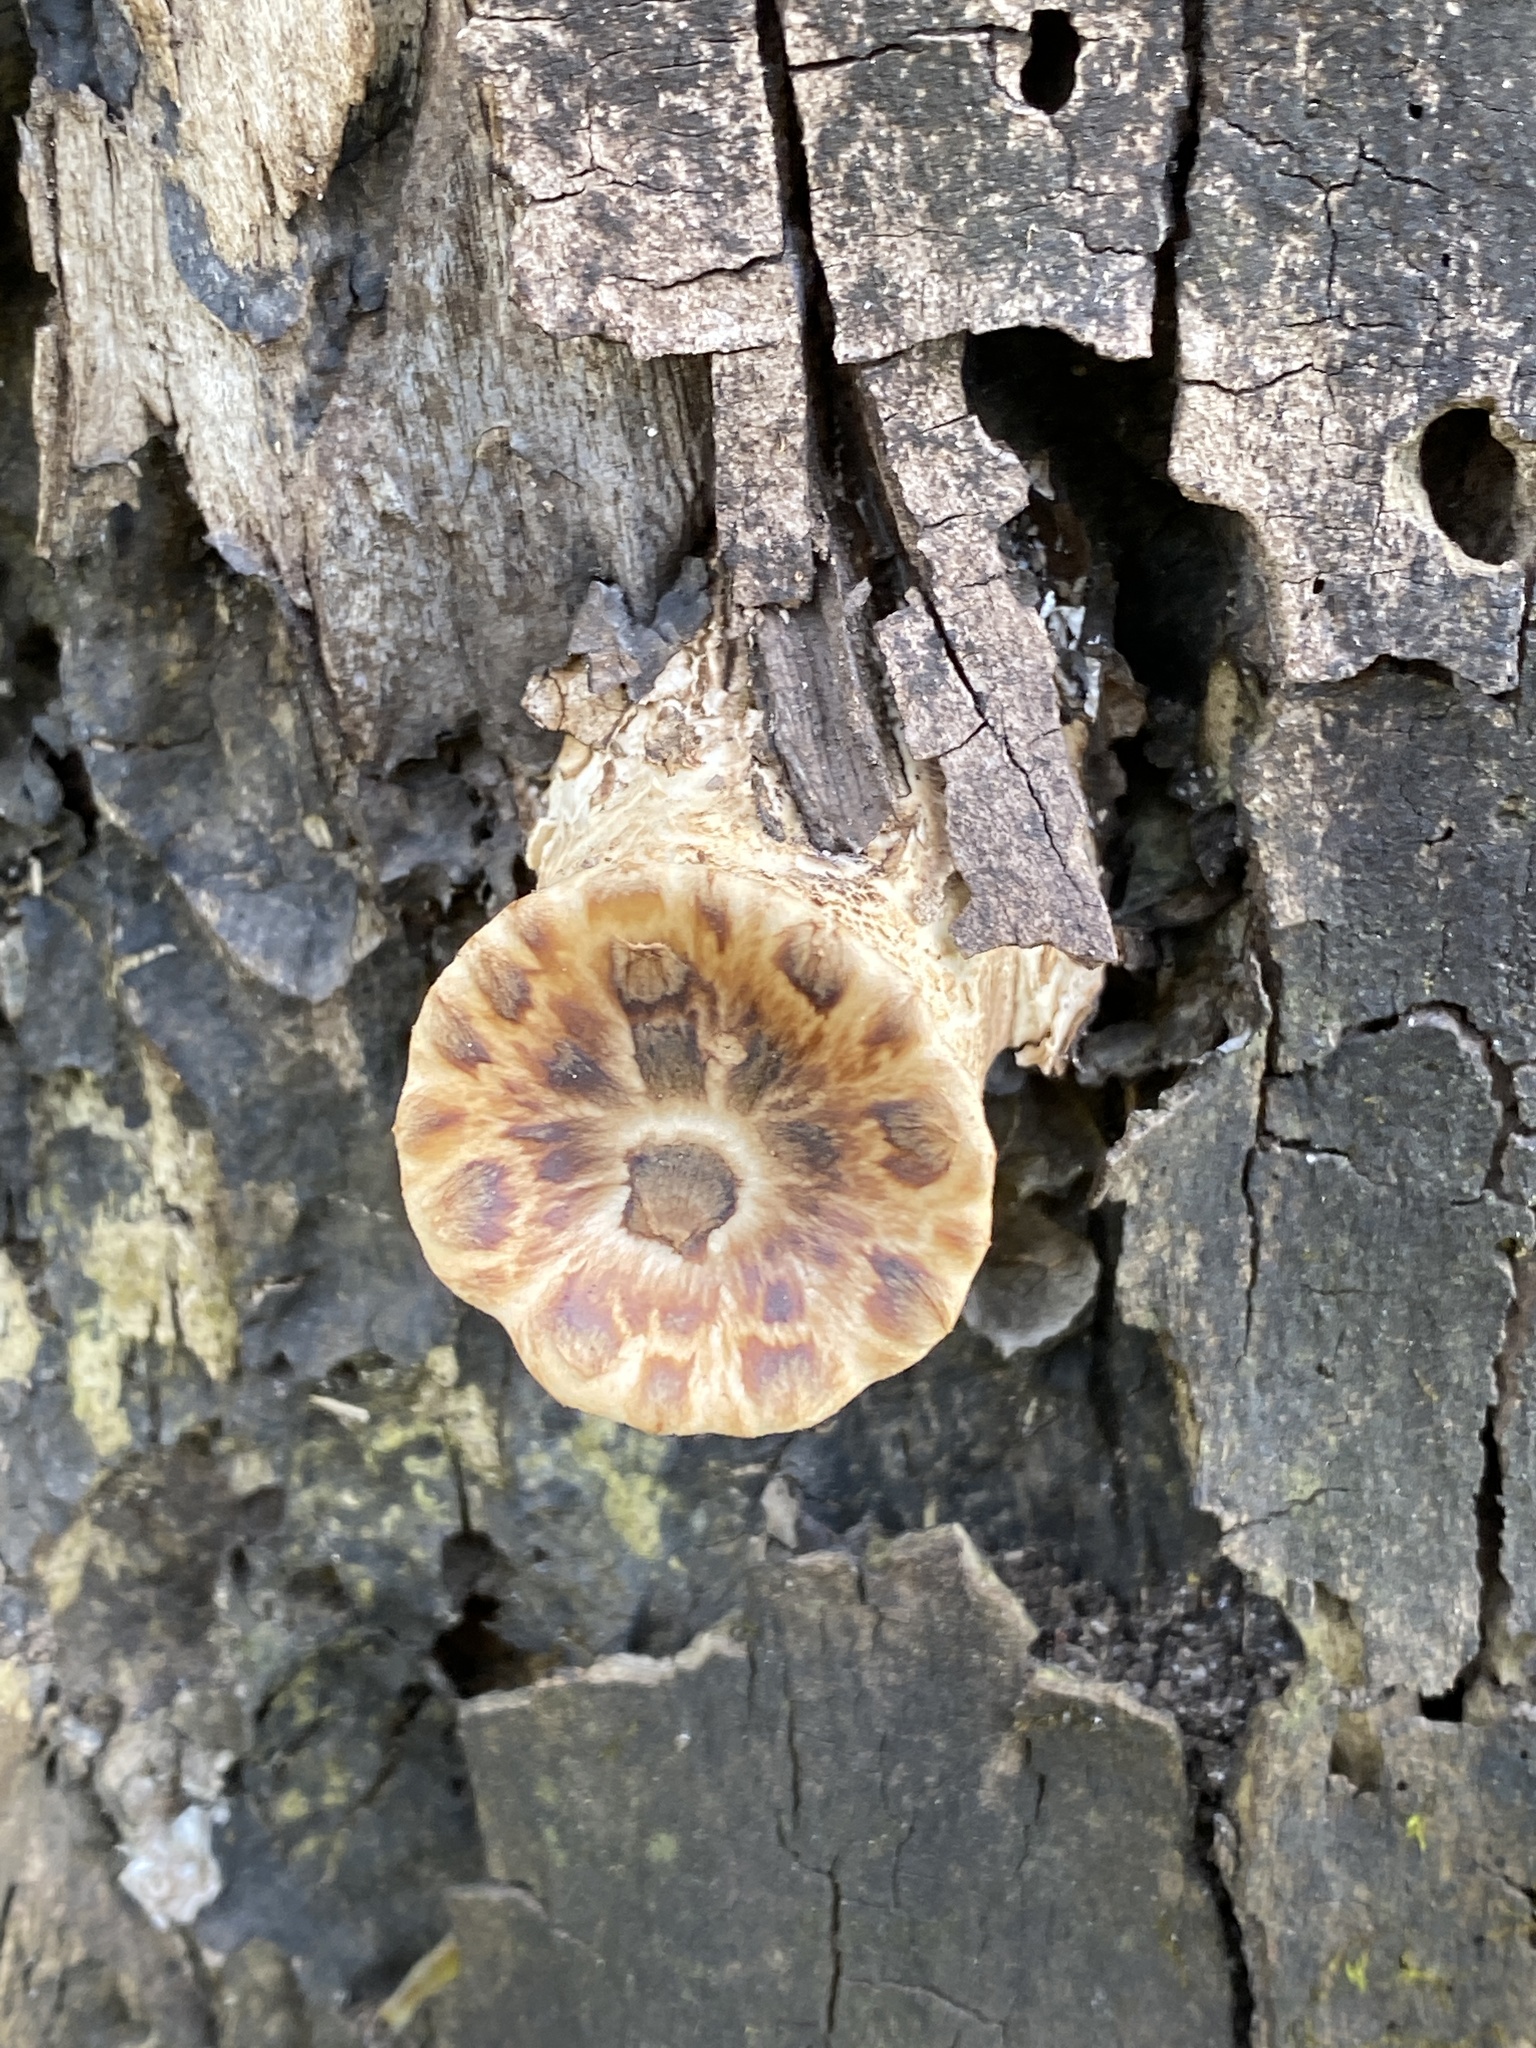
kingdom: Fungi
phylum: Basidiomycota
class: Agaricomycetes
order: Polyporales
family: Polyporaceae
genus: Cerioporus
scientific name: Cerioporus squamosus
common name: Dryad's saddle
